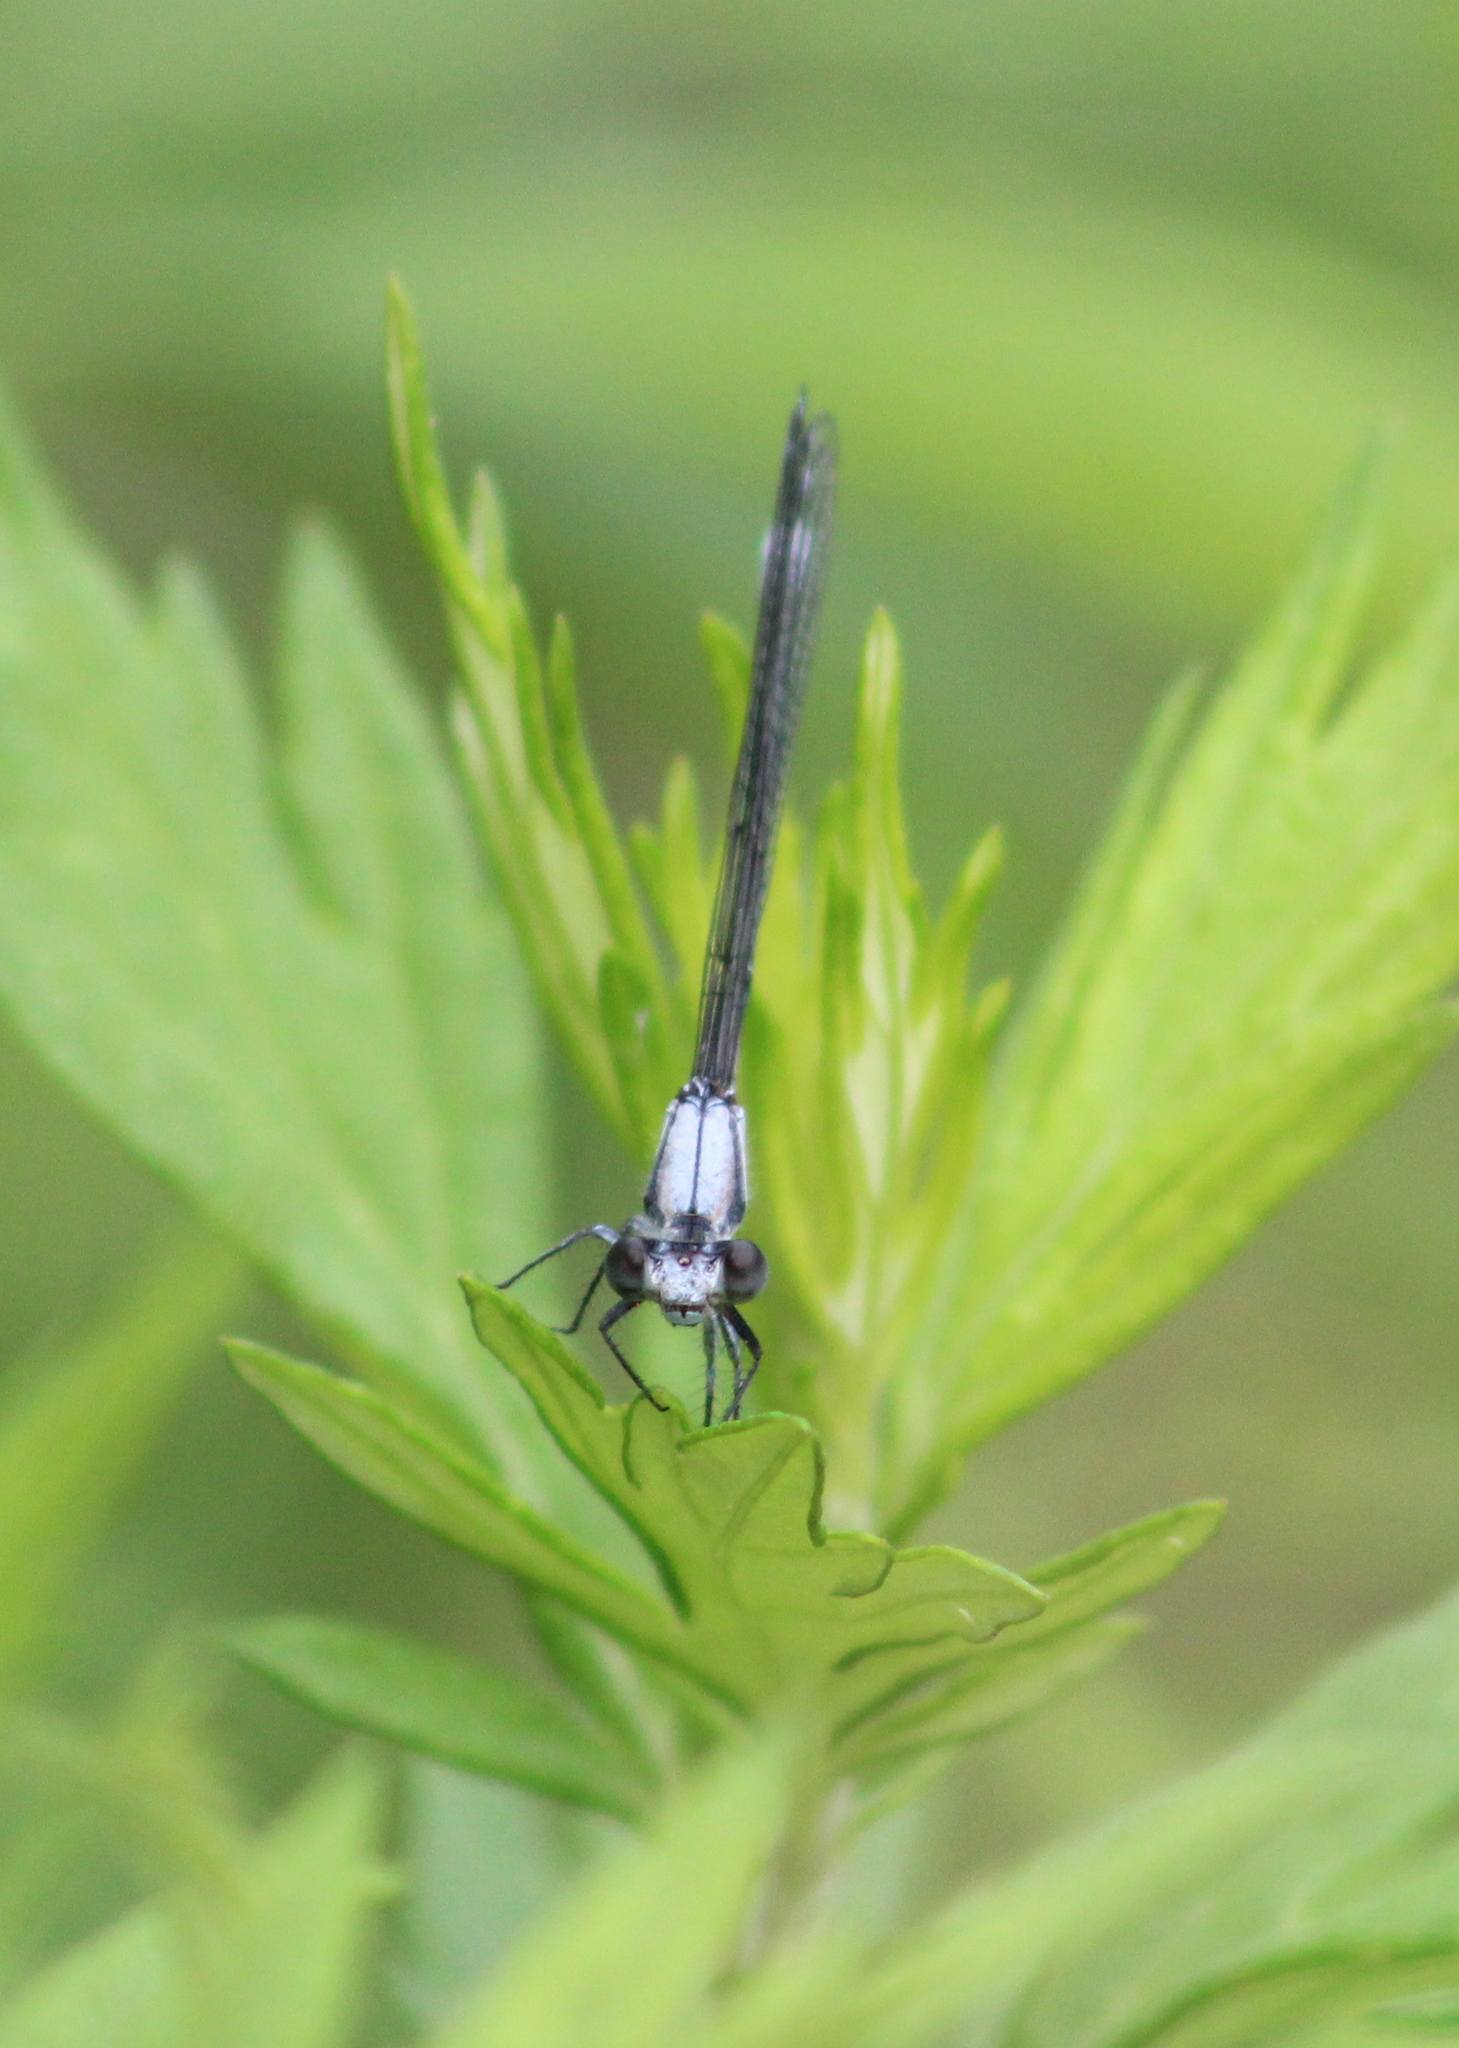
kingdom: Animalia
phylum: Arthropoda
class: Insecta
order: Odonata
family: Coenagrionidae
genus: Argia
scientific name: Argia moesta
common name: Powdered dancer
